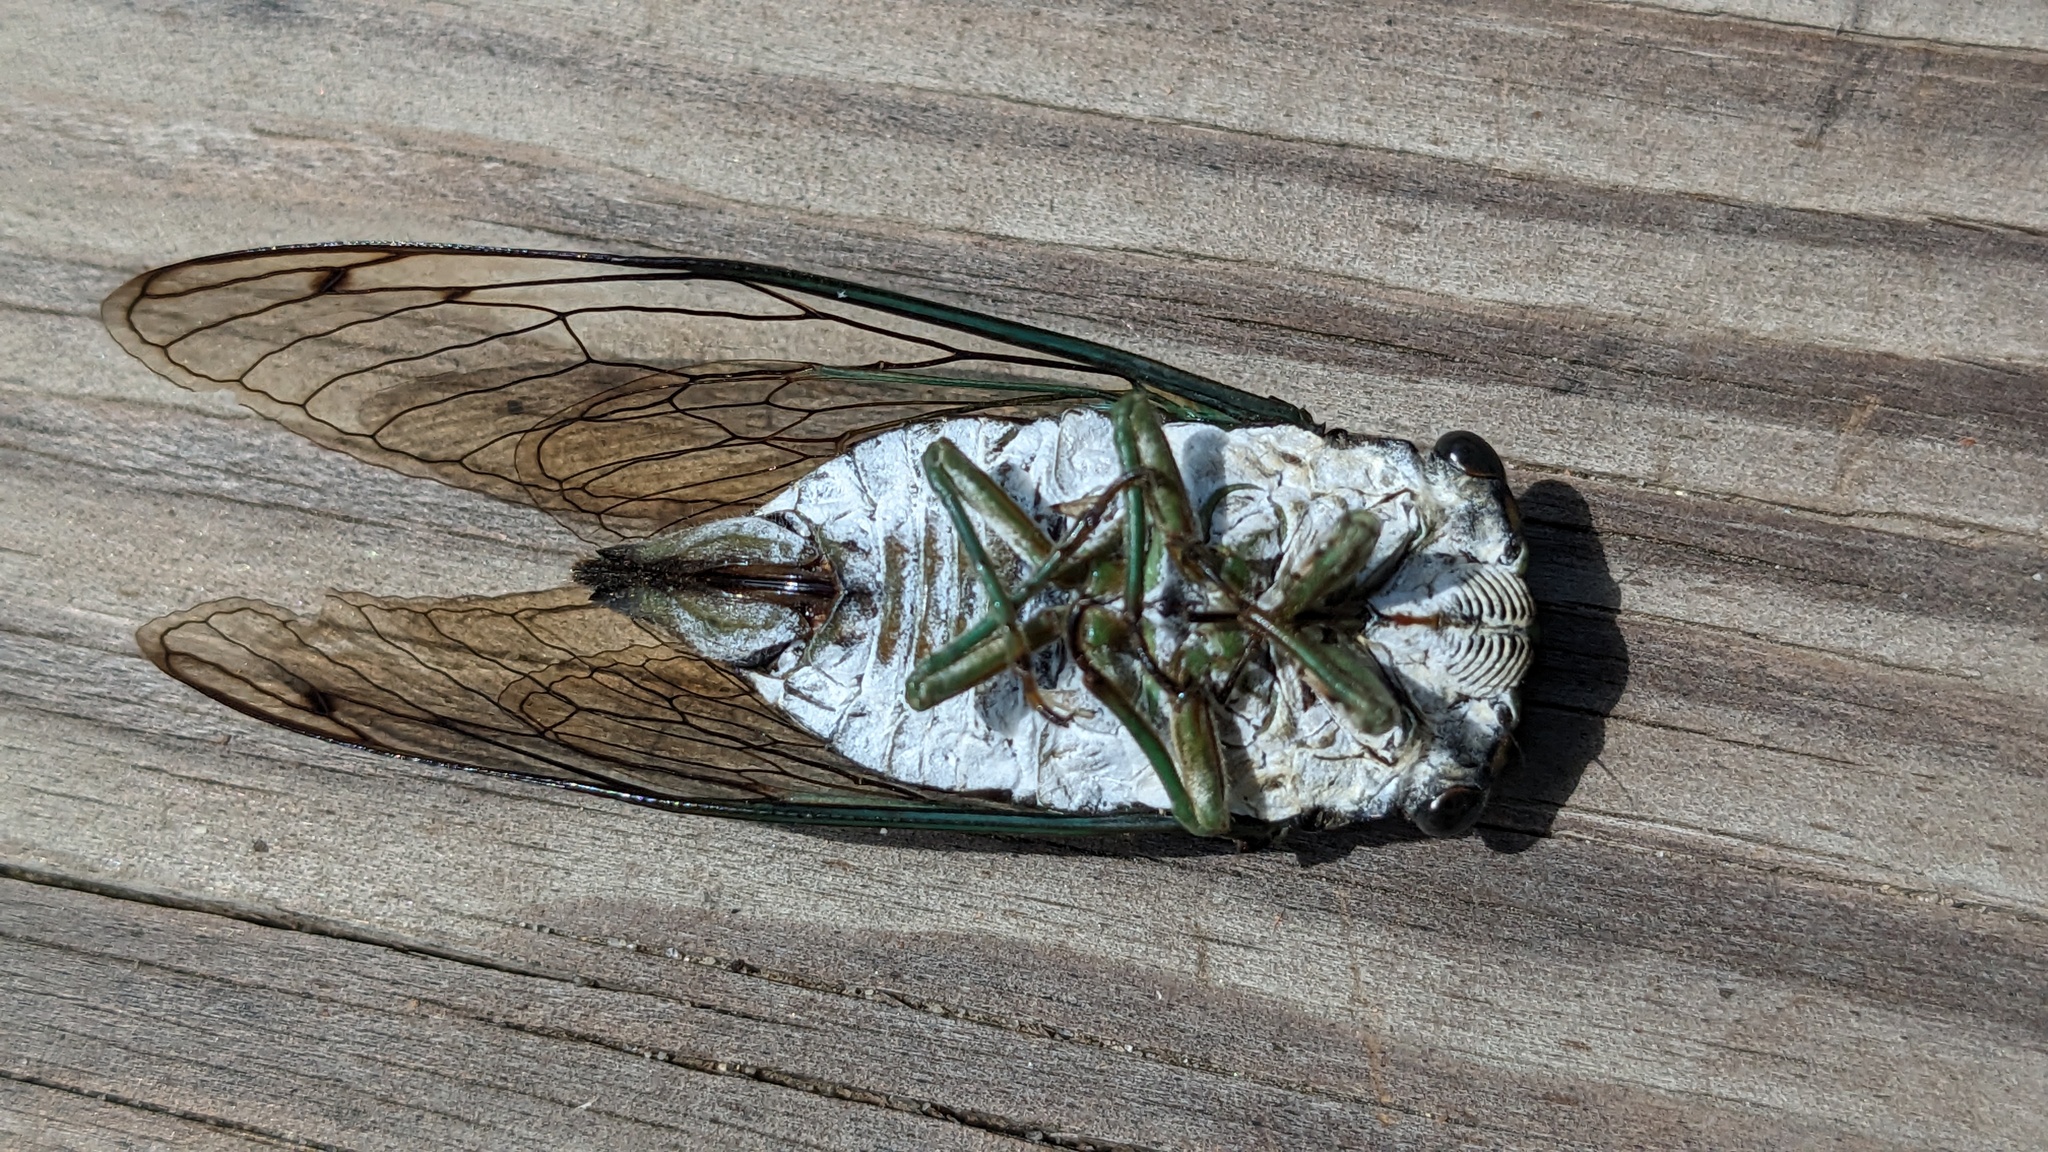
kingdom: Animalia
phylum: Arthropoda
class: Insecta
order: Hemiptera
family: Cicadidae
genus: Neotibicen
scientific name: Neotibicen tibicen
